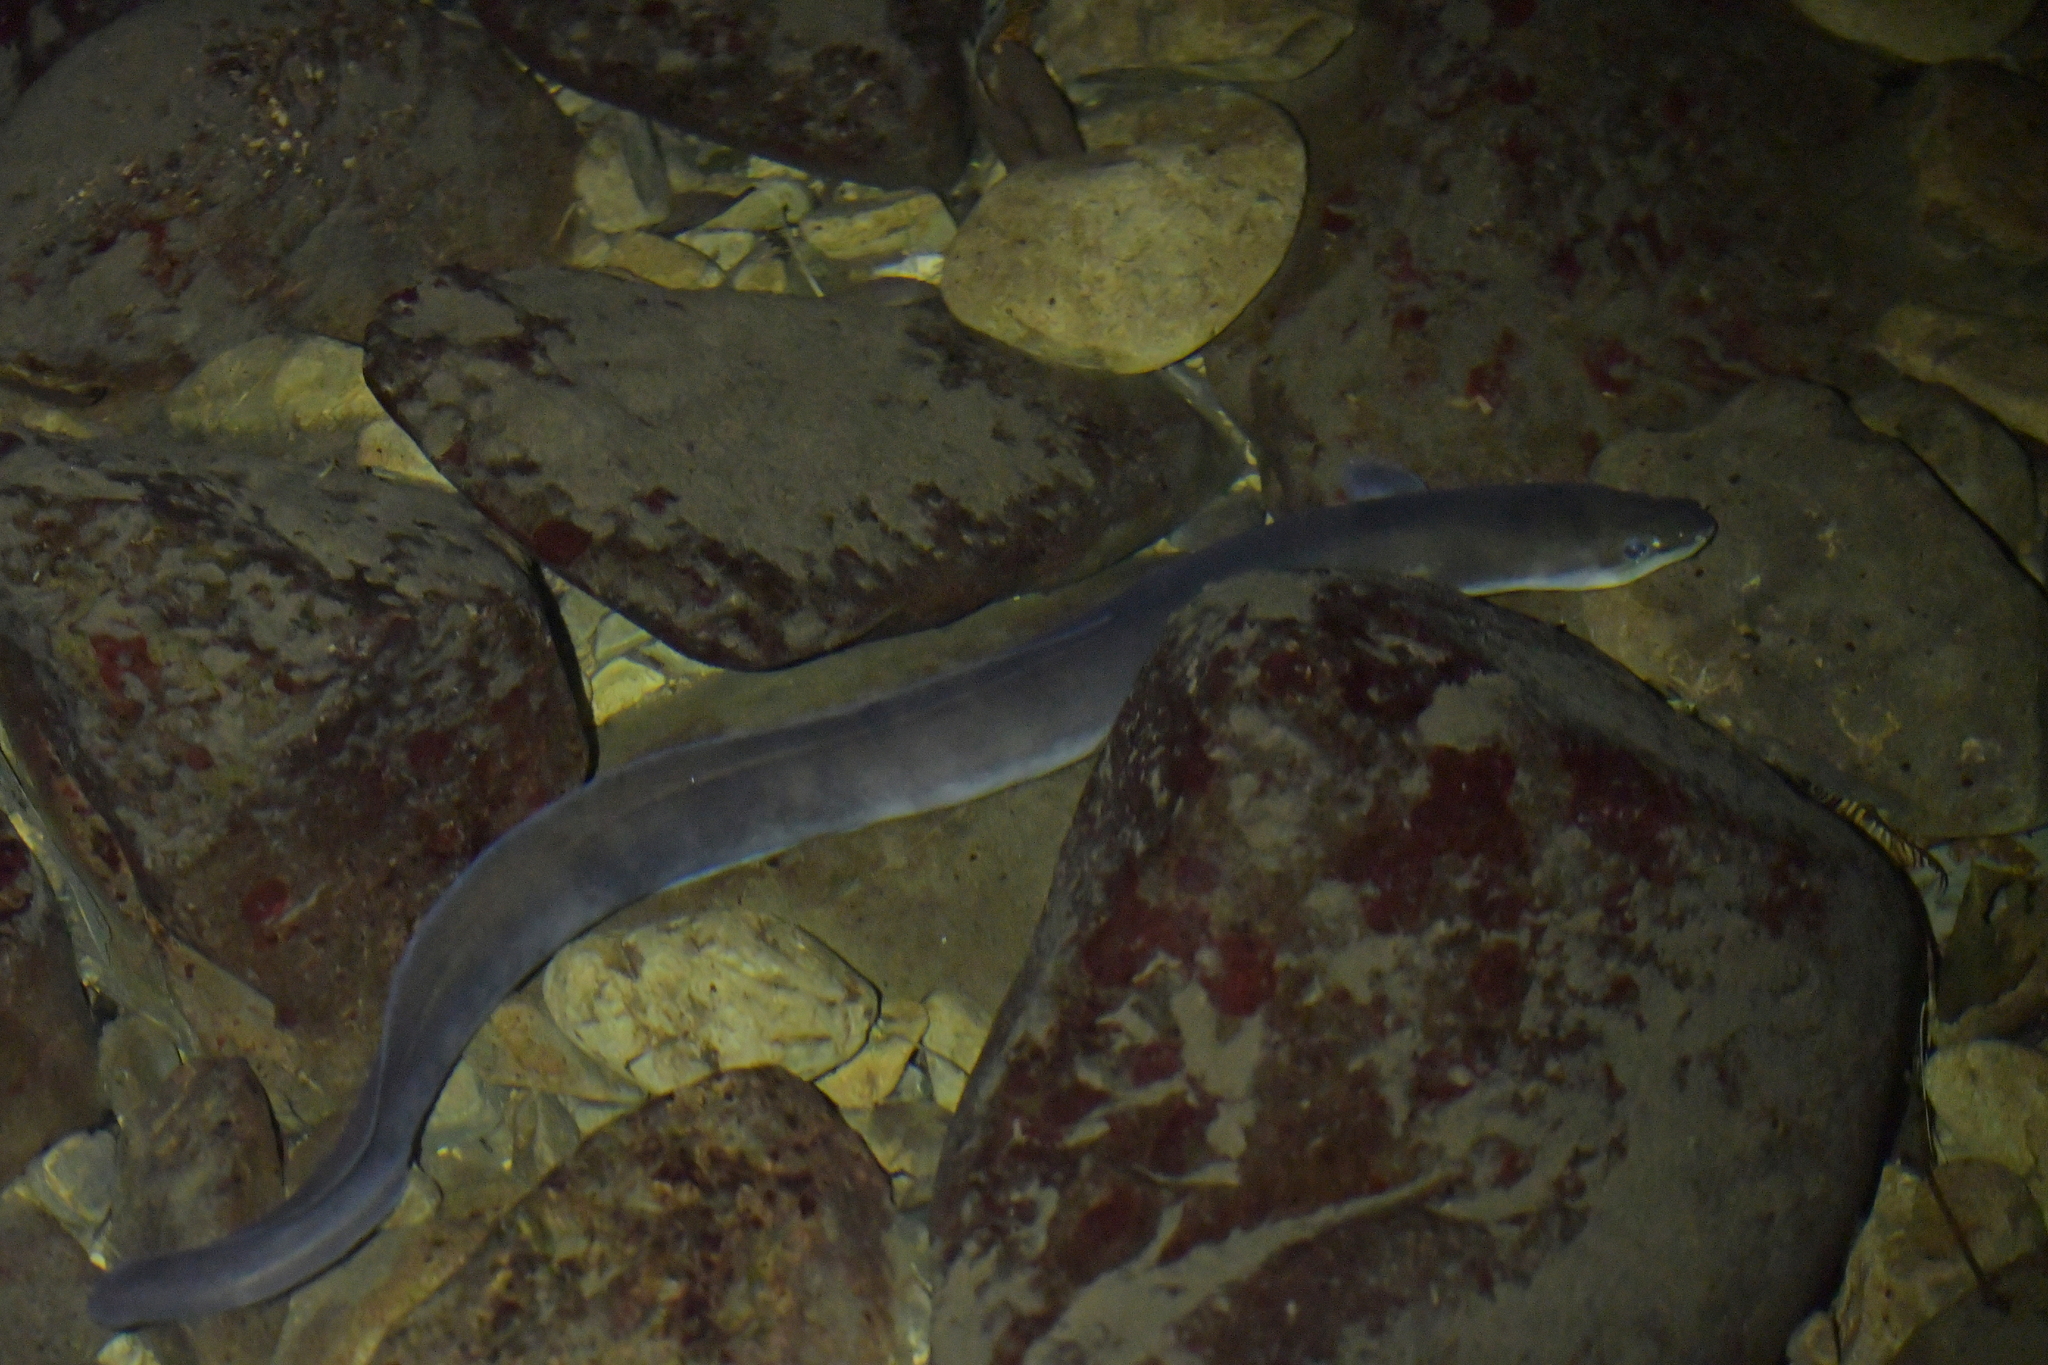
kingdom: Animalia
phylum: Chordata
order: Anguilliformes
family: Anguillidae
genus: Anguilla
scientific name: Anguilla dieffenbachii
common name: New zealand longfin eel
